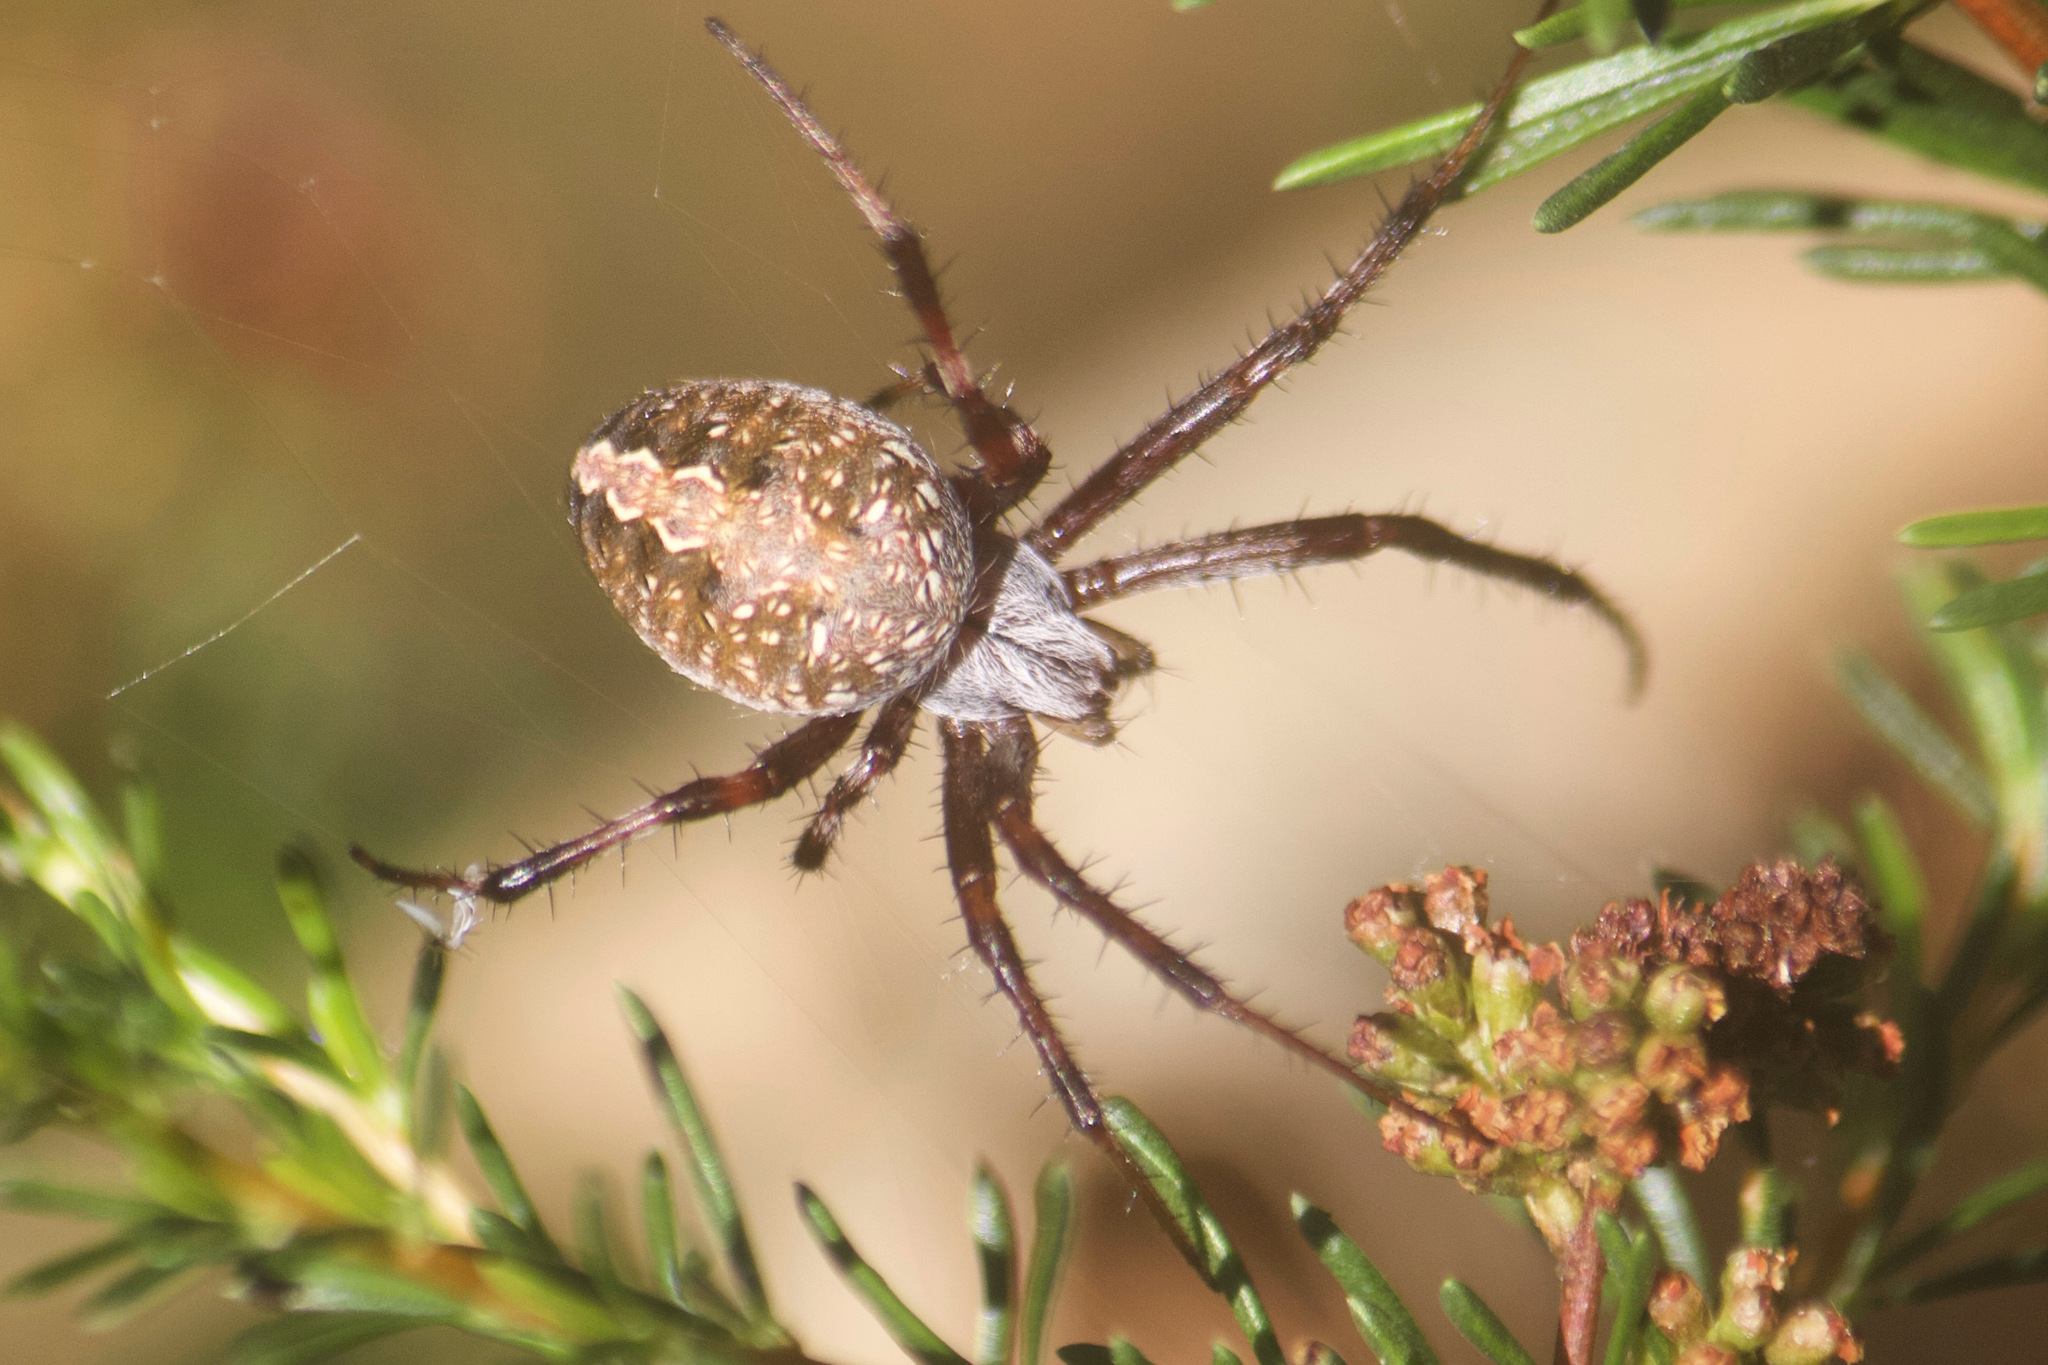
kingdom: Animalia
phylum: Arthropoda
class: Arachnida
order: Araneae
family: Araneidae
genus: Neoscona
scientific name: Neoscona oaxacensis
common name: Orb weavers
